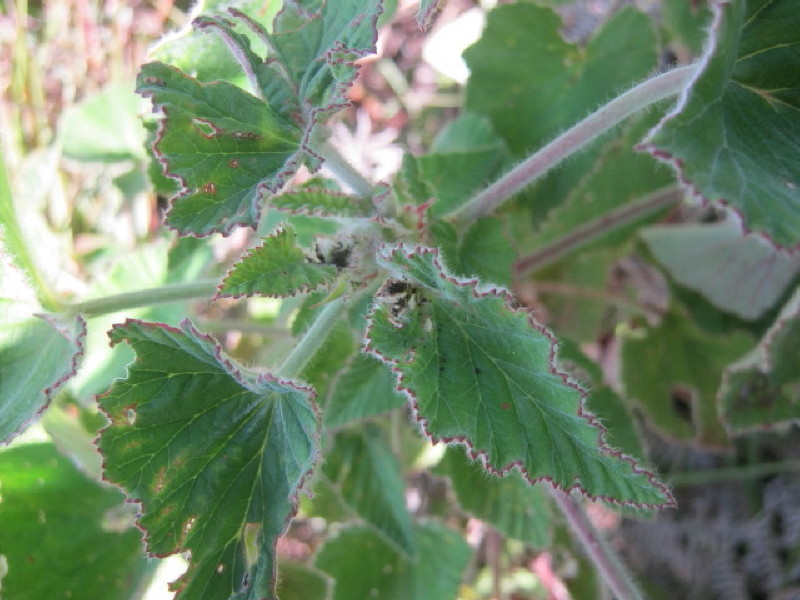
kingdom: Plantae
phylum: Tracheophyta
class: Magnoliopsida
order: Geraniales
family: Geraniaceae
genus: Pelargonium
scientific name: Pelargonium cordifolium
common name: Heart-leaf pelargonium
